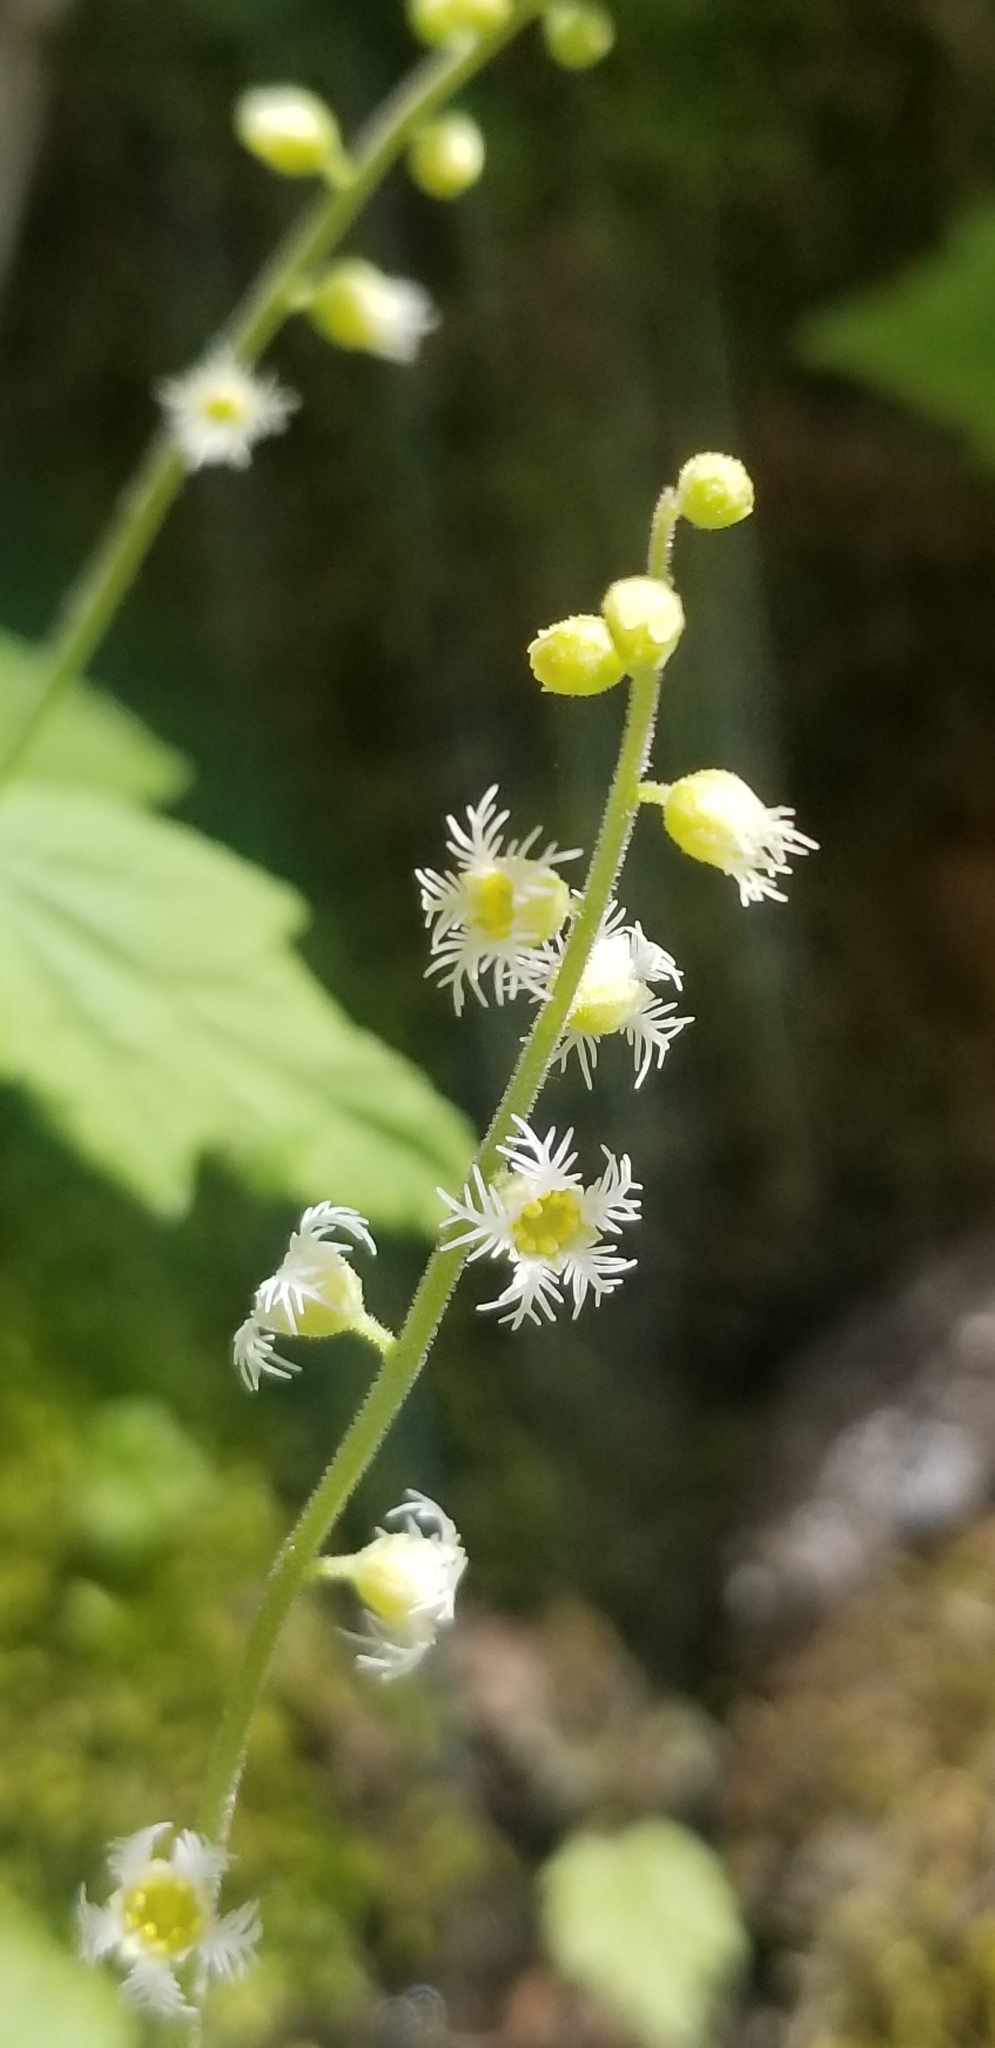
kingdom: Plantae
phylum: Tracheophyta
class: Magnoliopsida
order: Saxifragales
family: Saxifragaceae
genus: Mitella
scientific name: Mitella diphylla
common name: Coolwort
